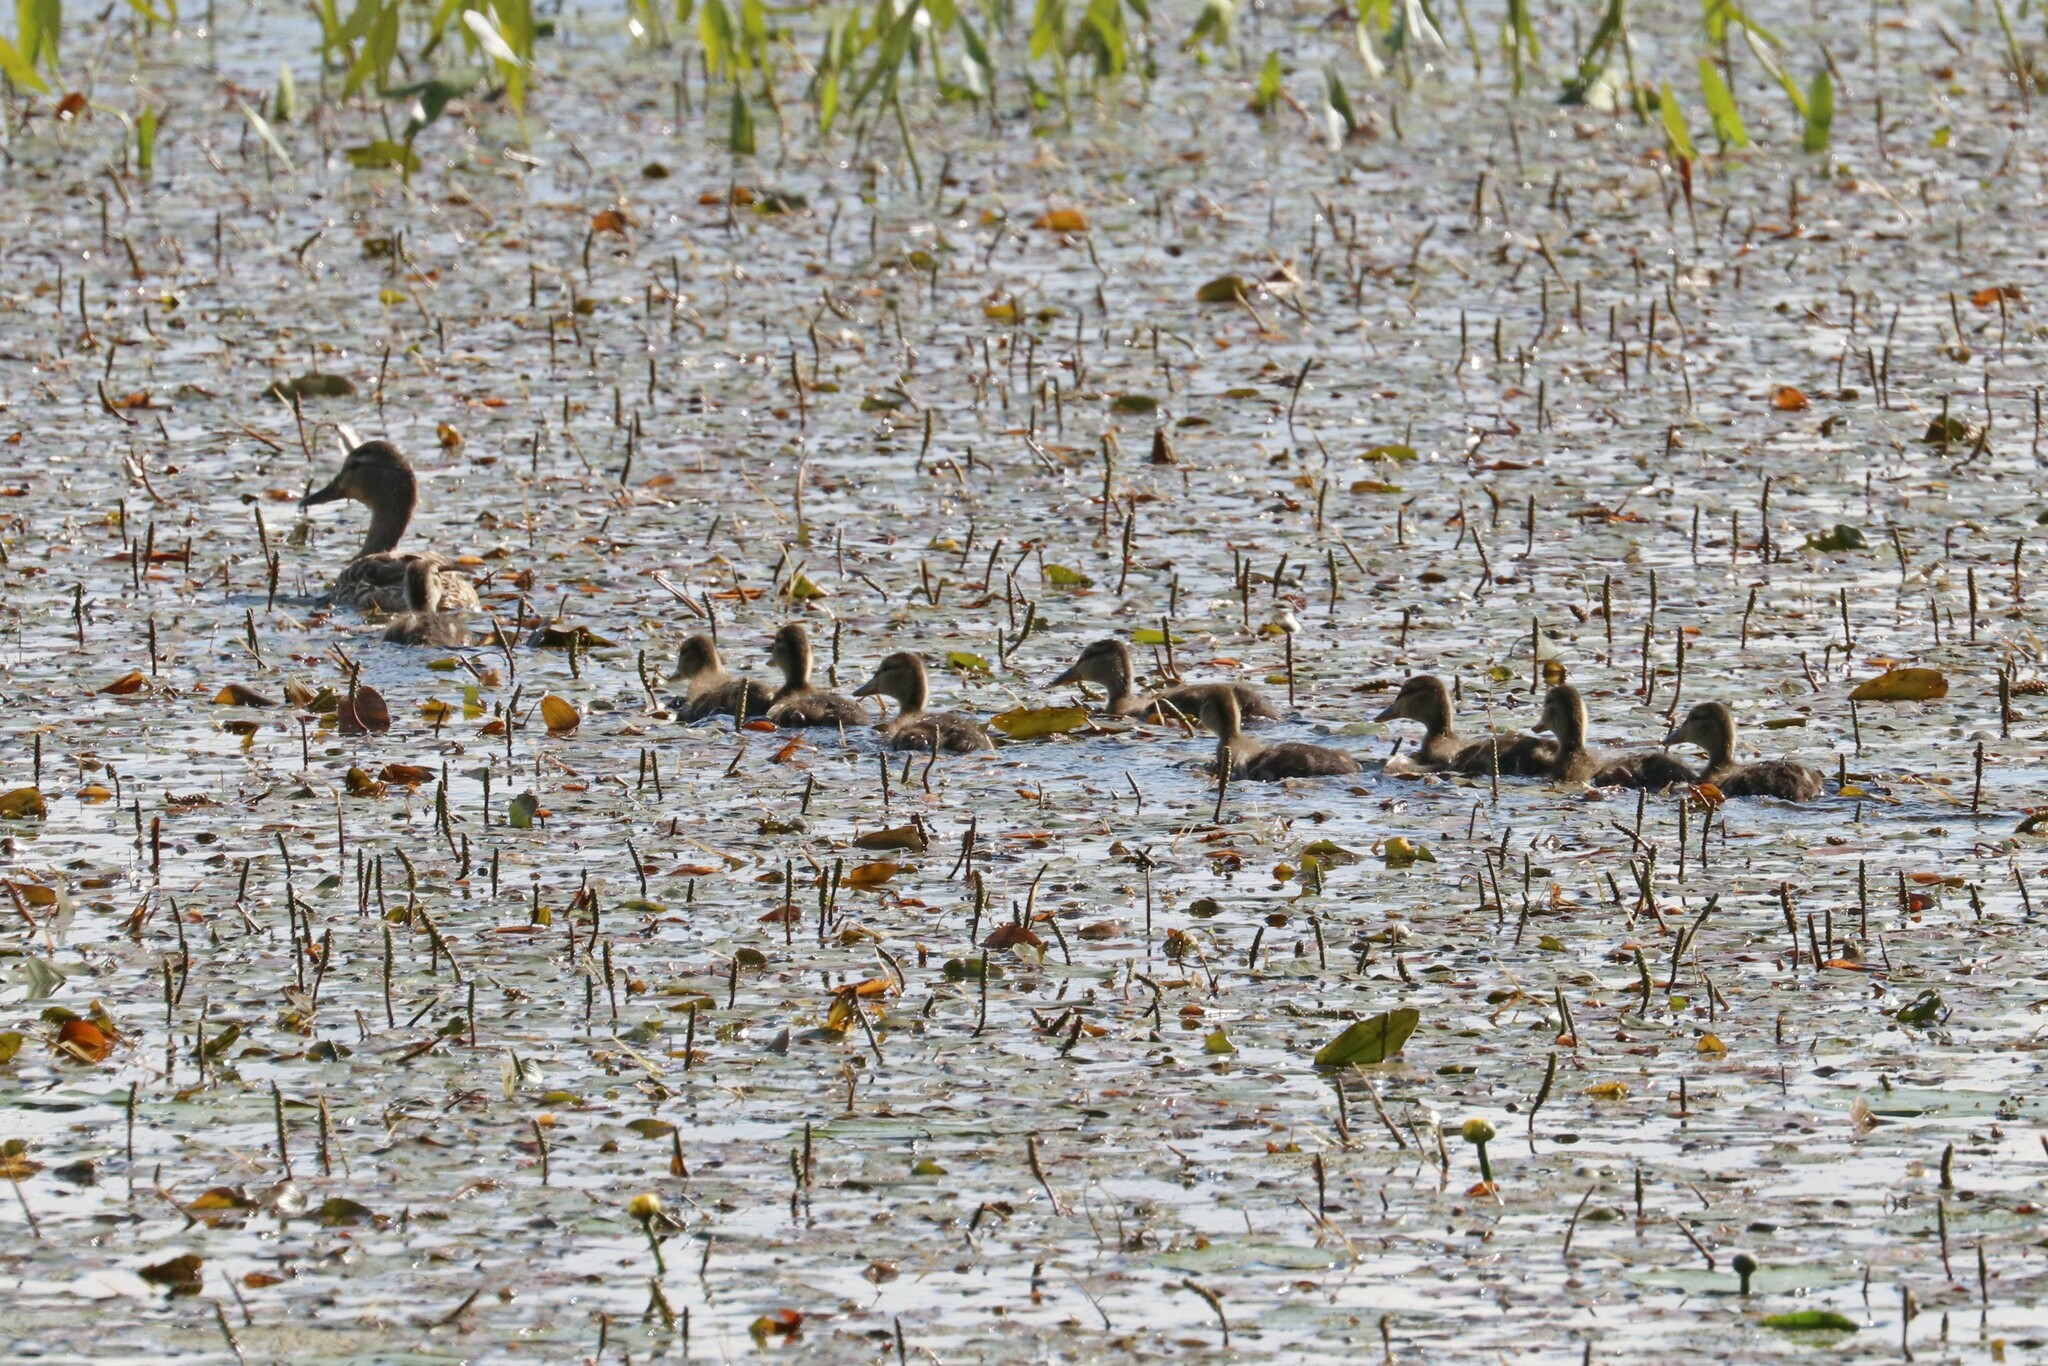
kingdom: Animalia
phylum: Chordata
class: Aves
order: Anseriformes
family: Anatidae
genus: Anas
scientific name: Anas platyrhynchos
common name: Mallard
